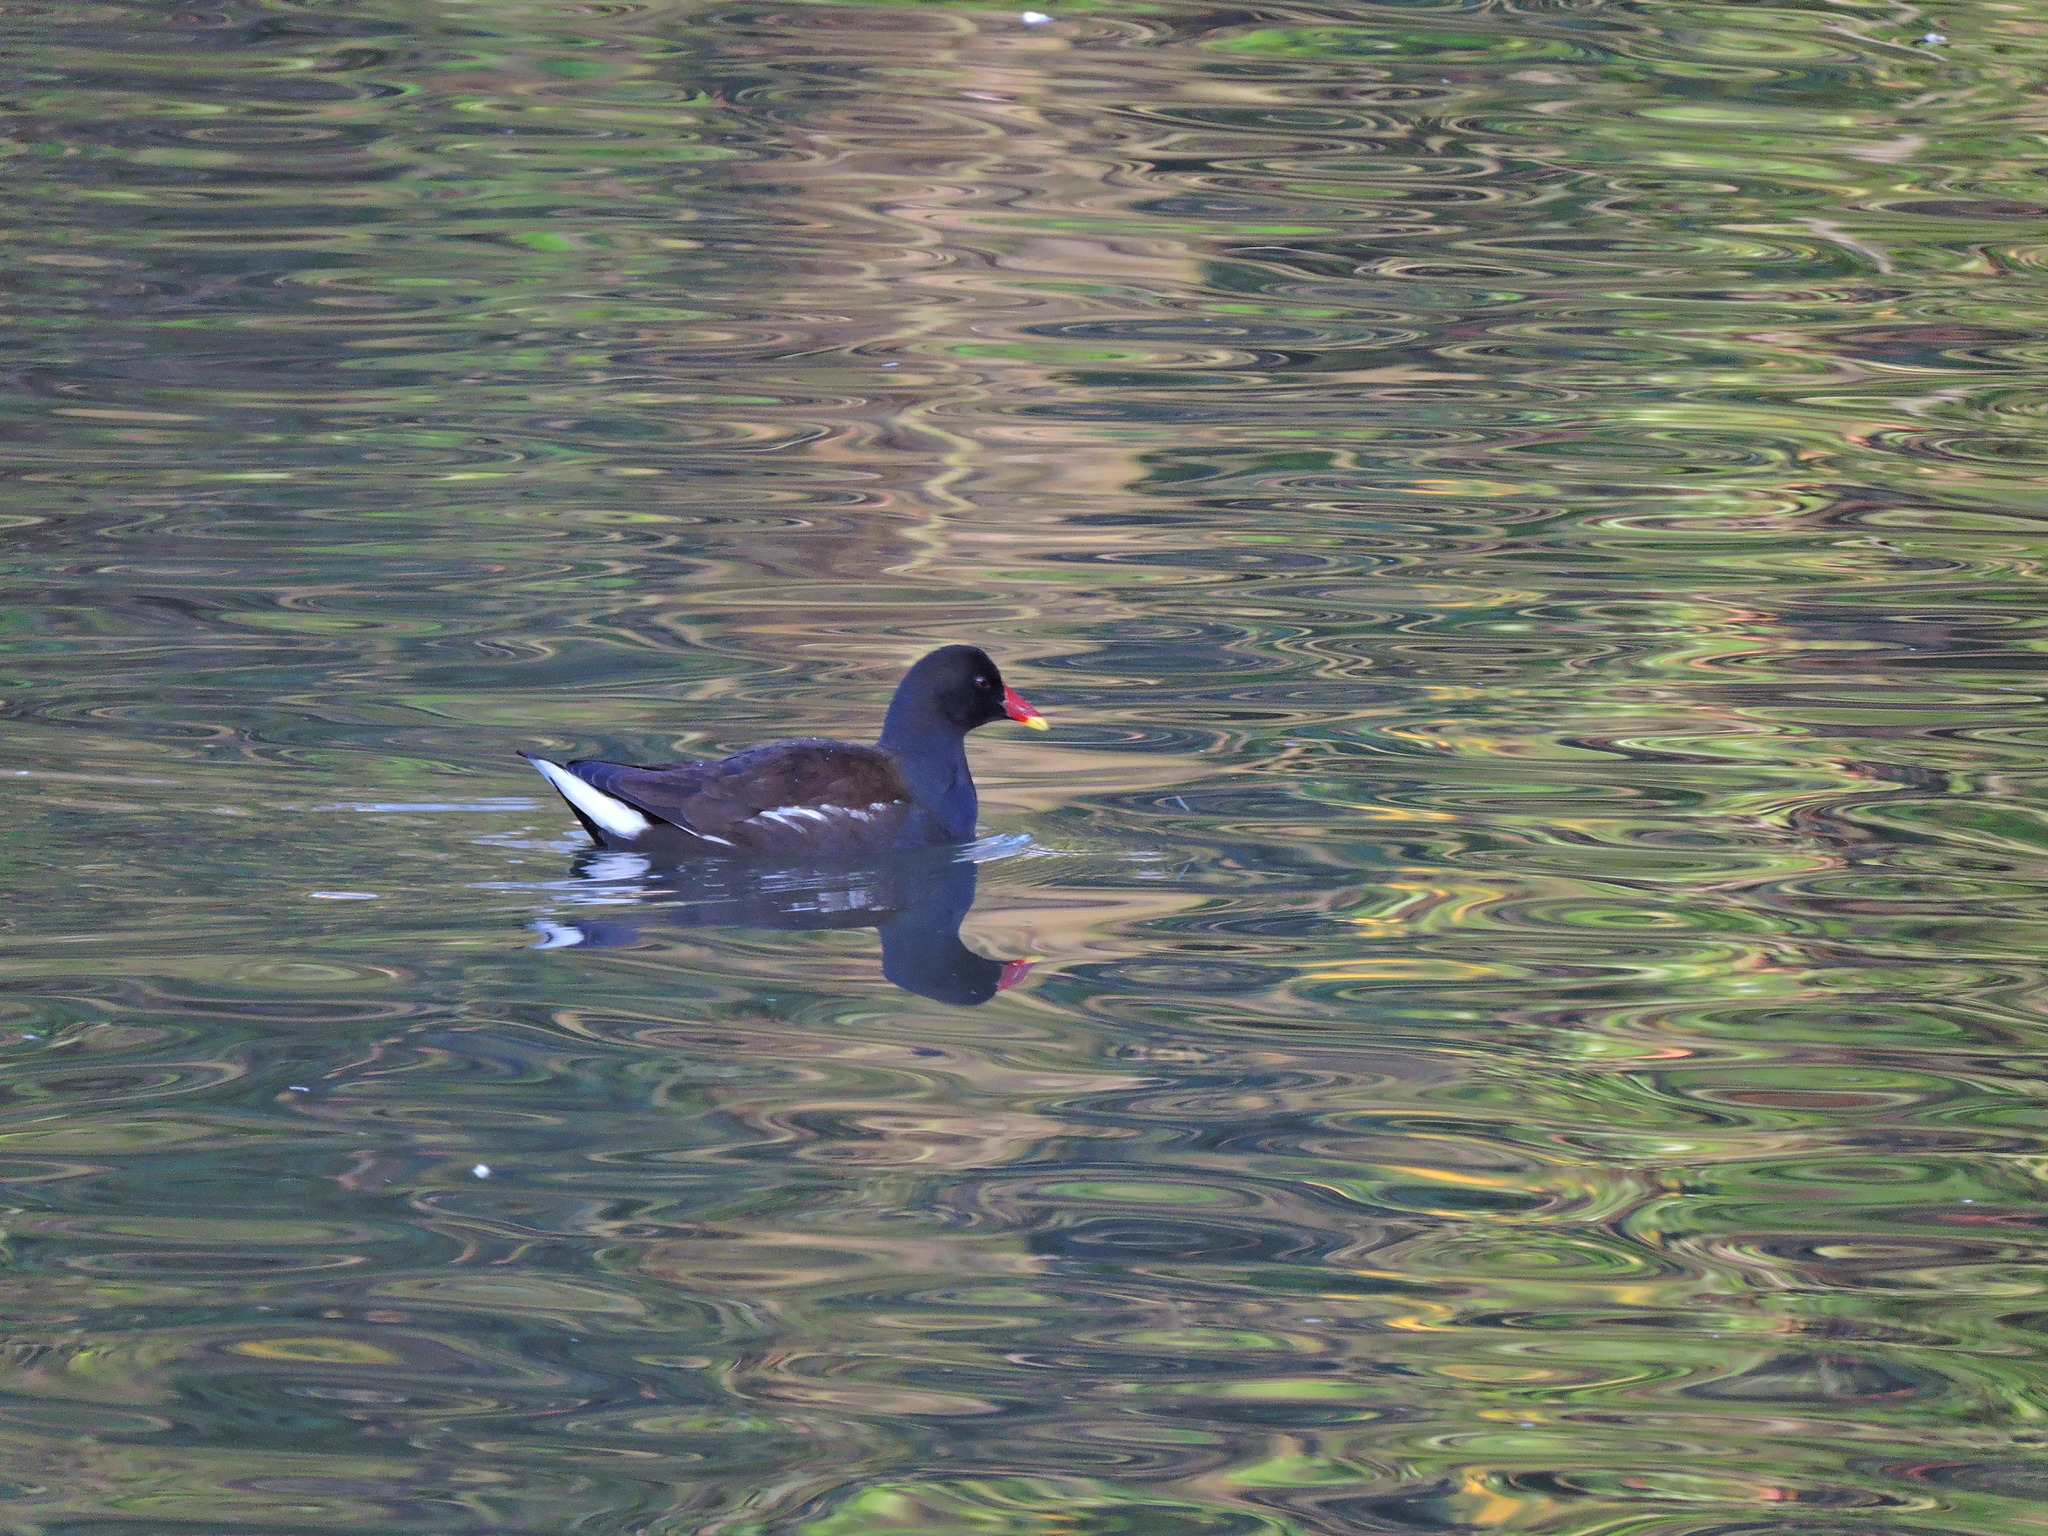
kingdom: Animalia
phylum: Chordata
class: Aves
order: Gruiformes
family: Rallidae
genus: Gallinula
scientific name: Gallinula chloropus
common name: Common moorhen
